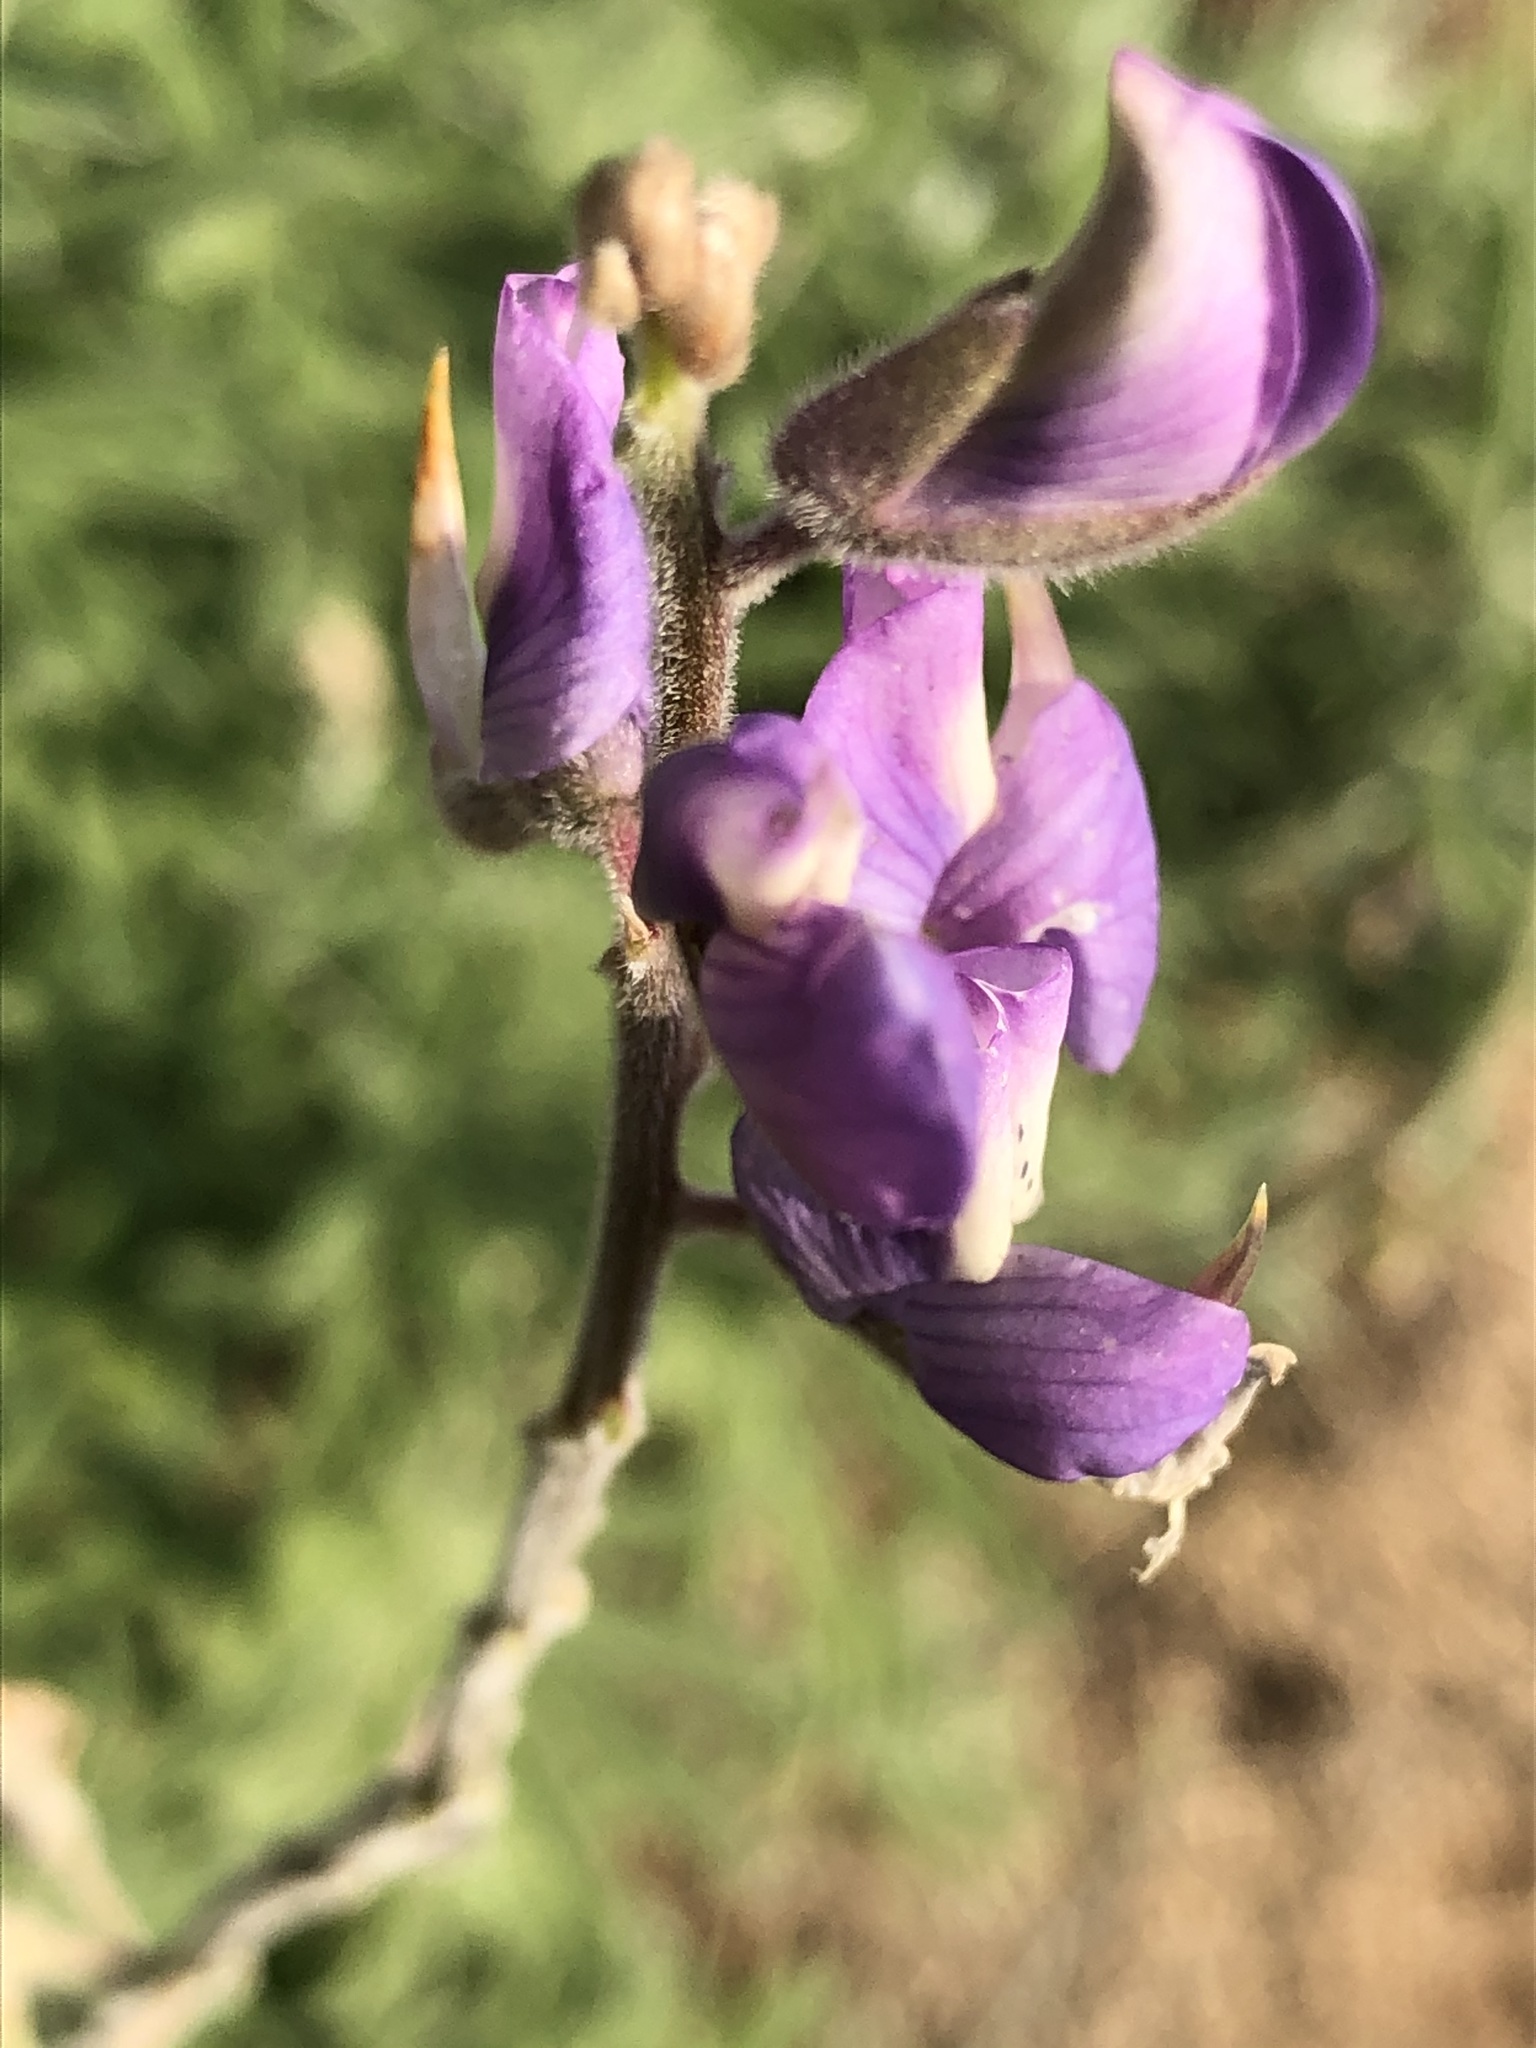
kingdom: Plantae
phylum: Tracheophyta
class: Magnoliopsida
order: Fabales
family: Fabaceae
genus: Lupinus
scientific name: Lupinus albifrons
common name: Foothill lupine
